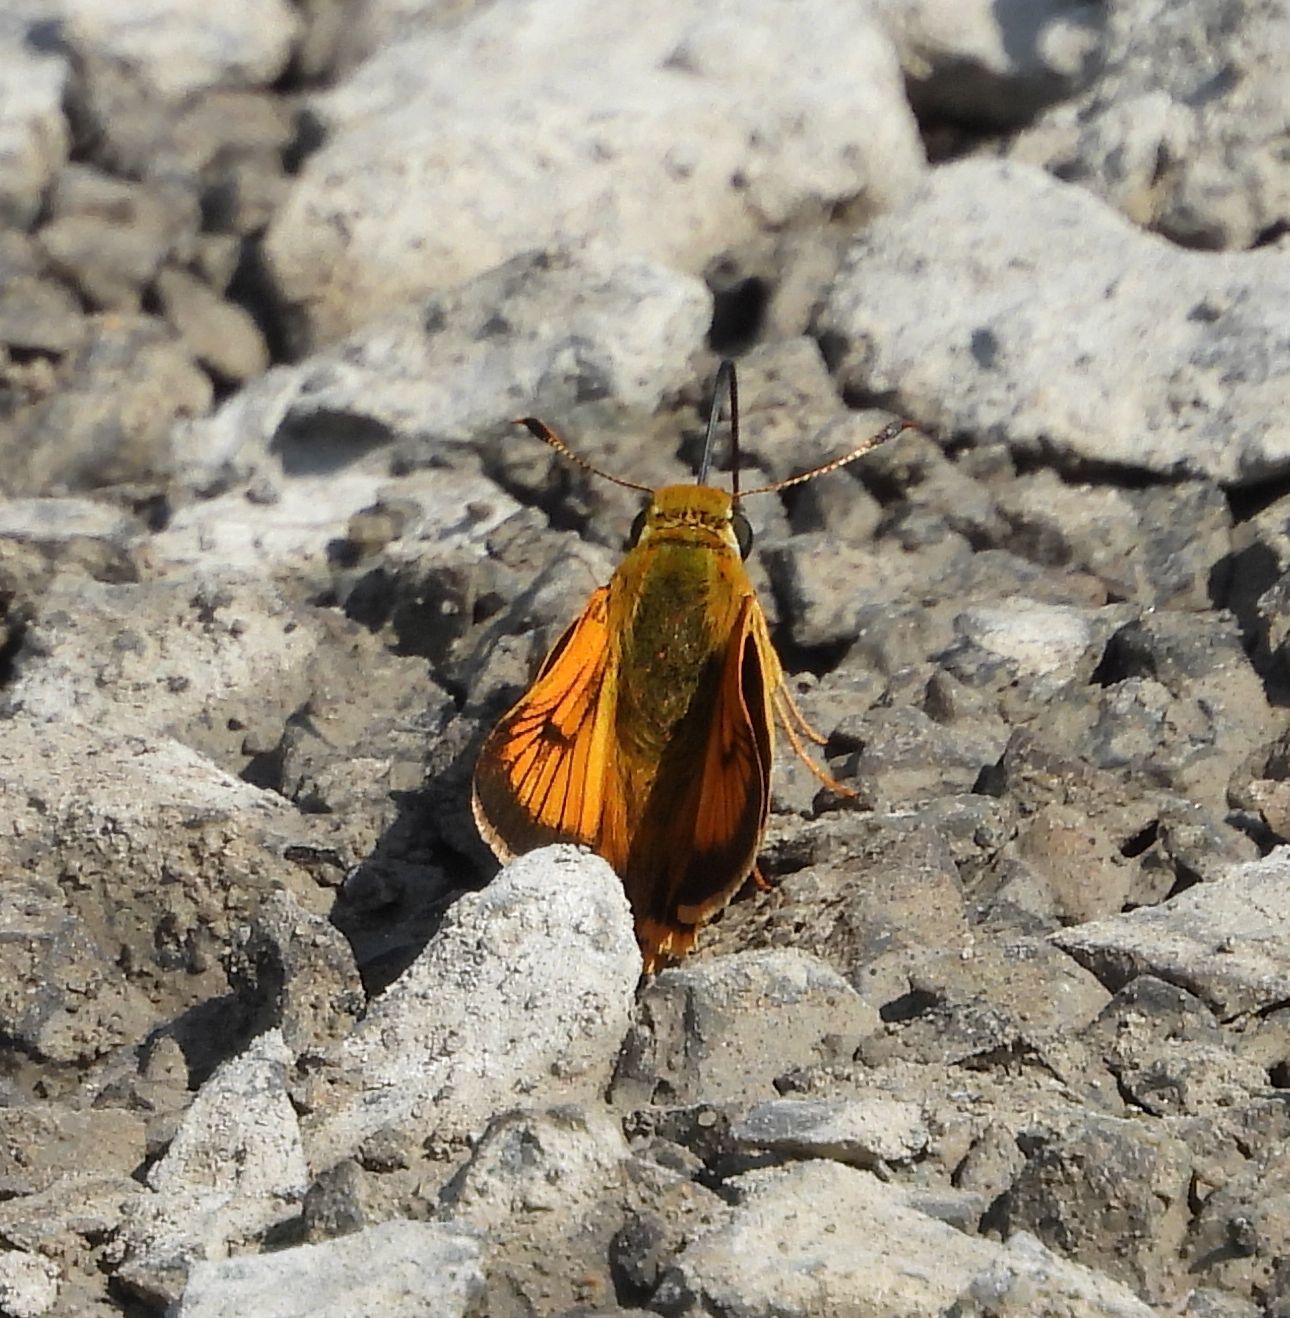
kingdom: Animalia
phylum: Arthropoda
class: Insecta
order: Lepidoptera
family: Hesperiidae
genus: Atrytone
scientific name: Atrytone delaware
